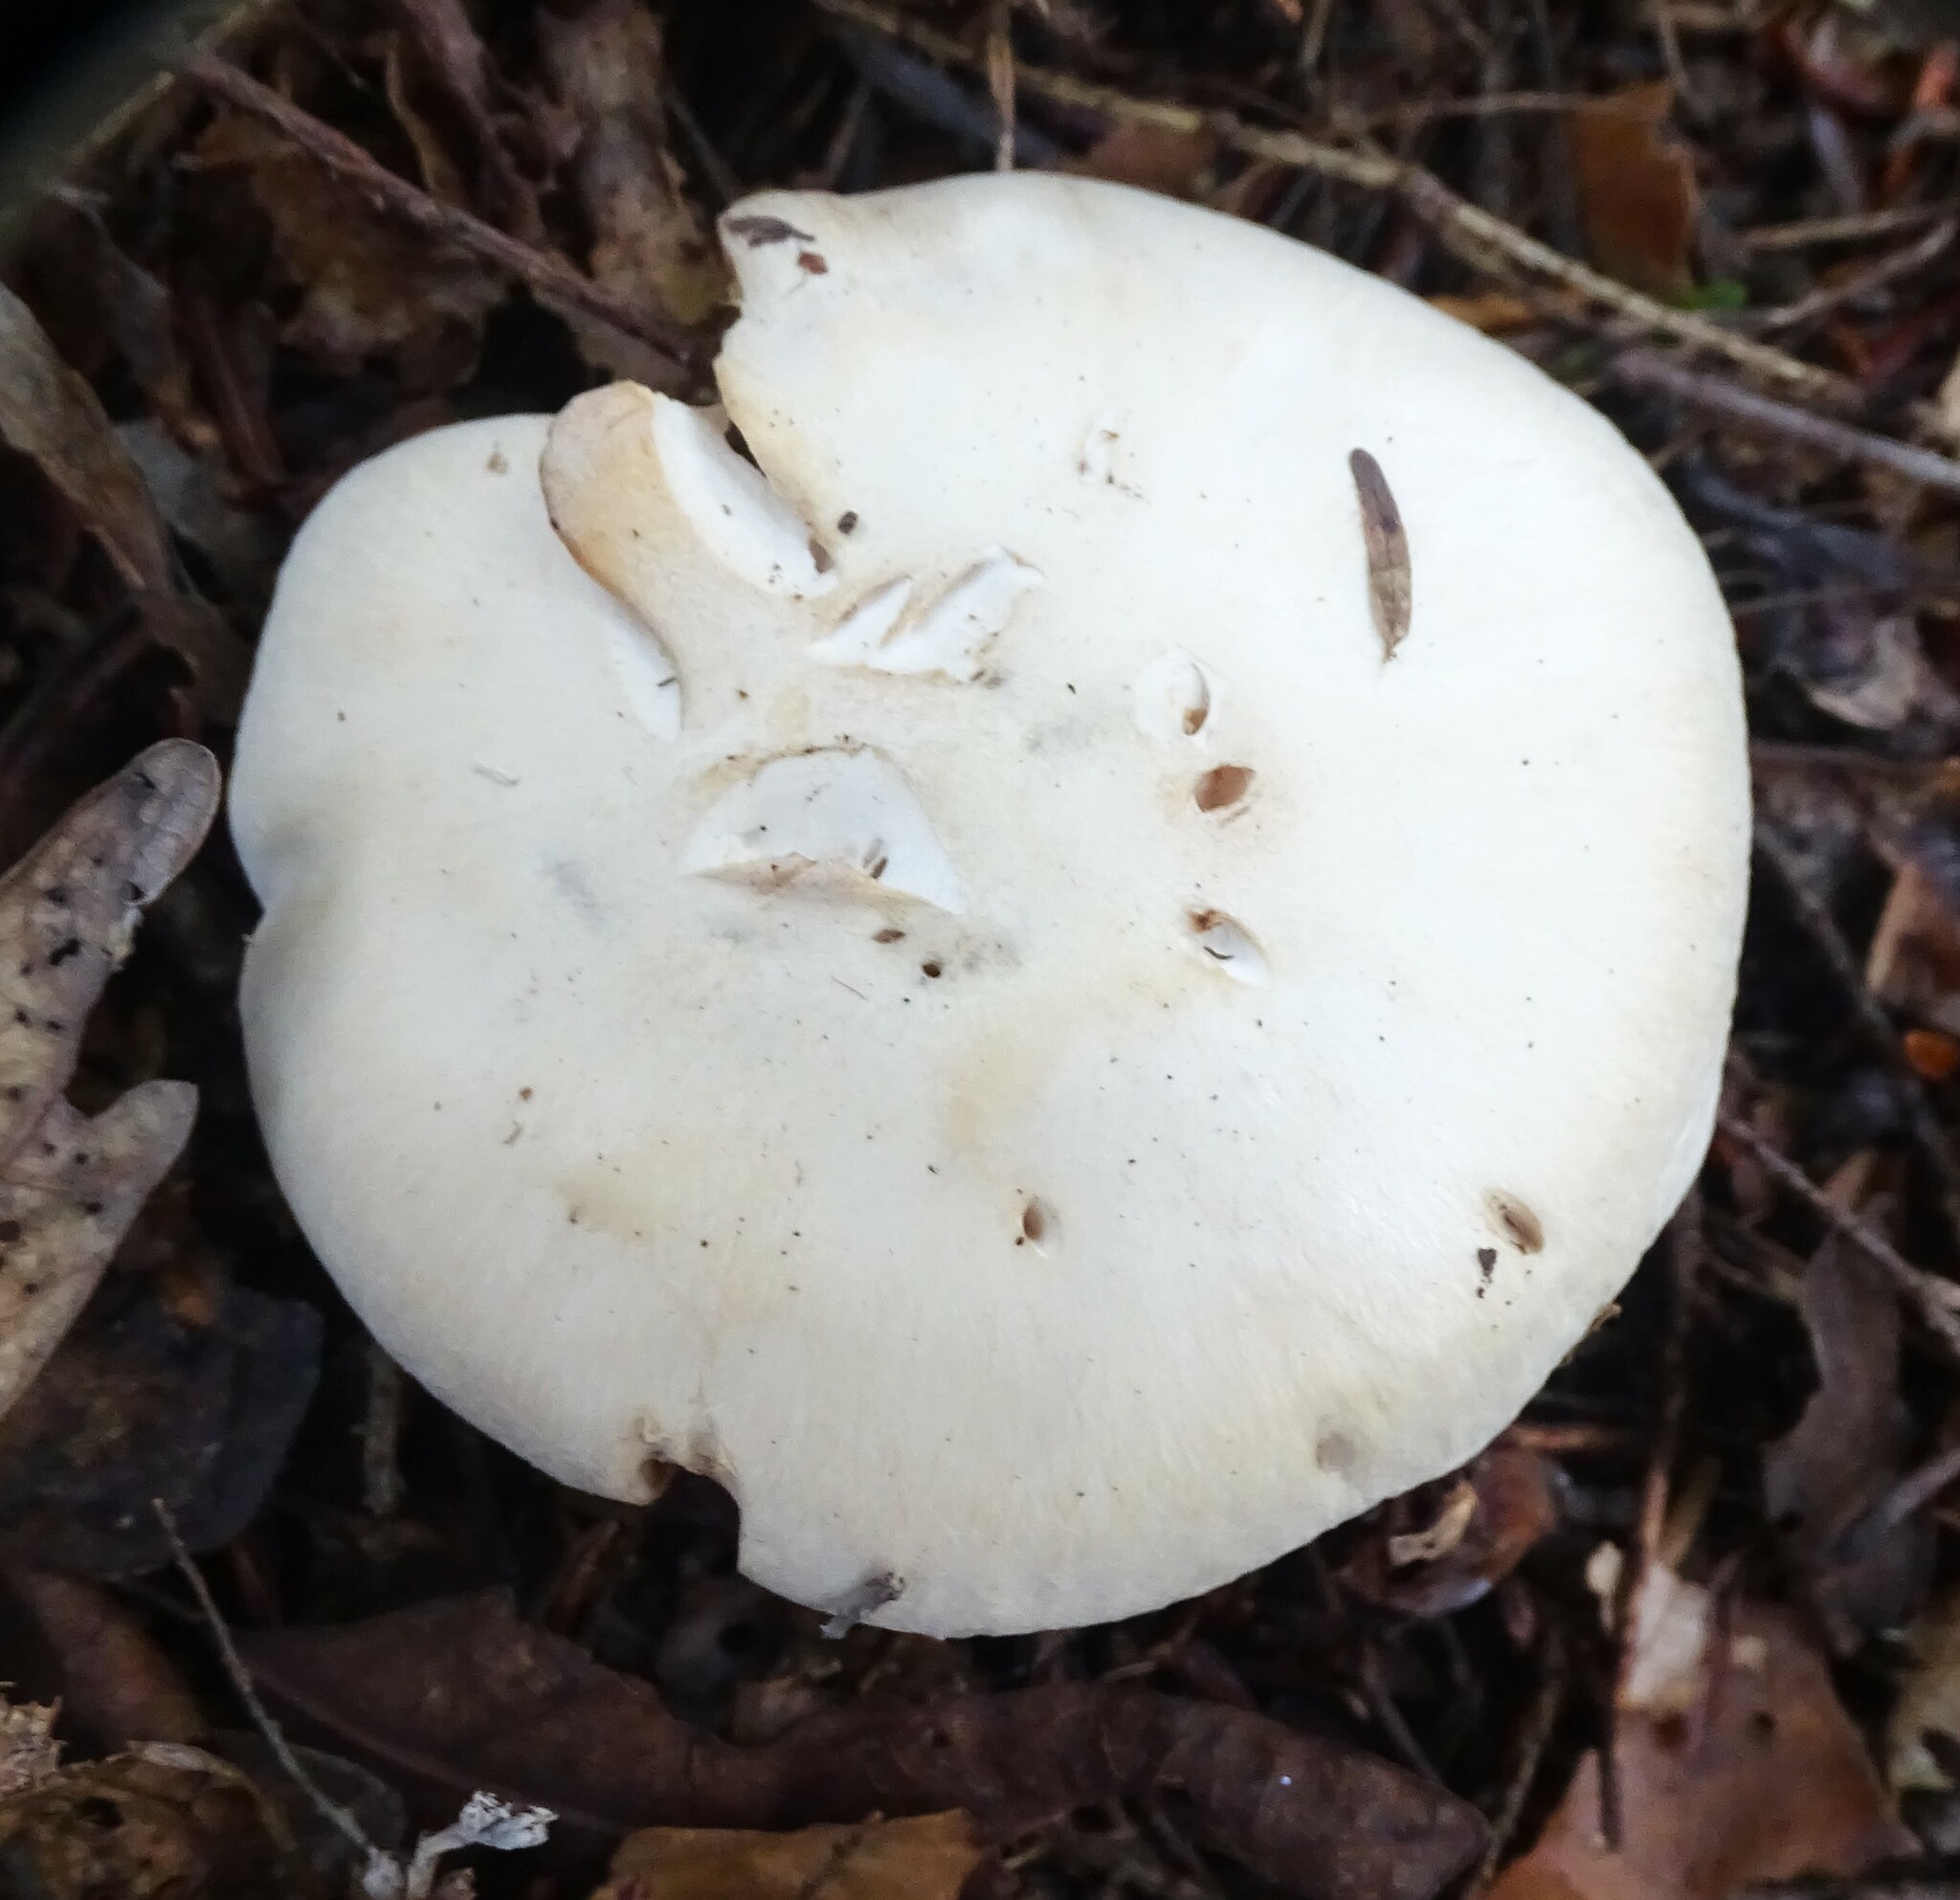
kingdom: Fungi
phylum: Basidiomycota
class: Agaricomycetes
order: Agaricales
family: Tricholomataceae
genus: Clitocybe
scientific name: Clitocybe robusta
